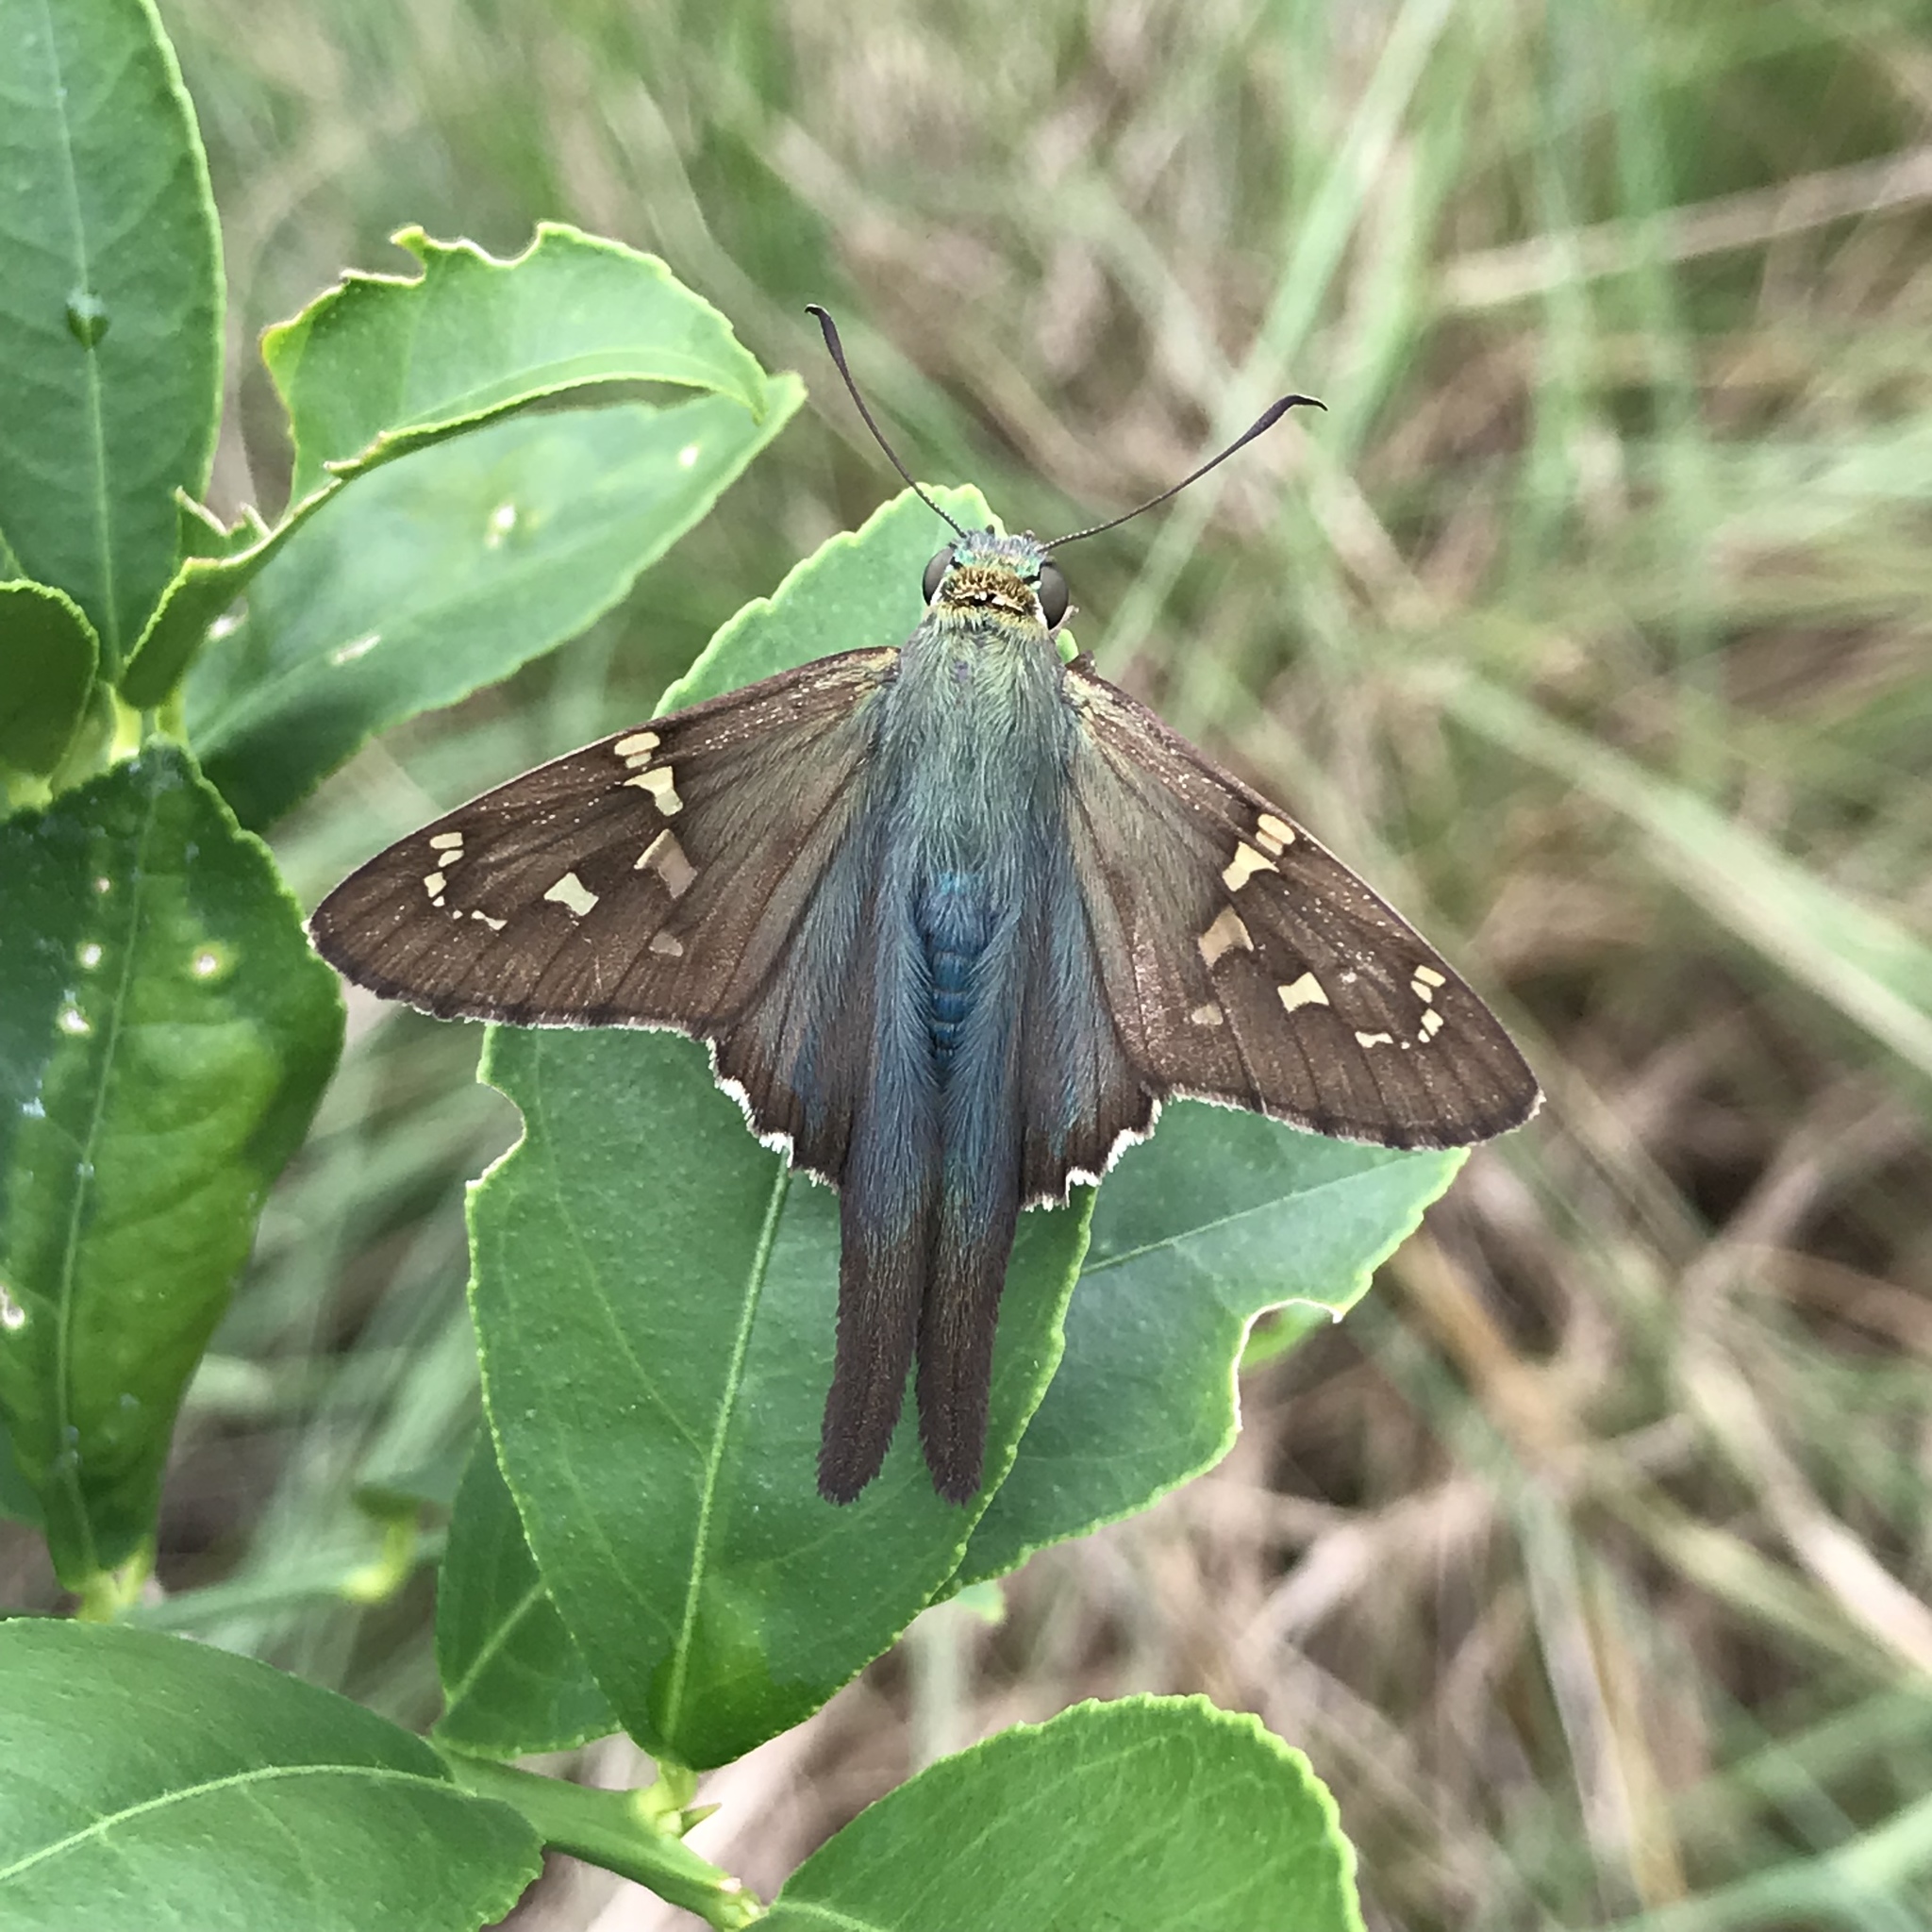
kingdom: Animalia
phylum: Arthropoda
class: Insecta
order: Lepidoptera
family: Hesperiidae
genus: Urbanus
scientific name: Urbanus proteus
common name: Long-tailed skipper
